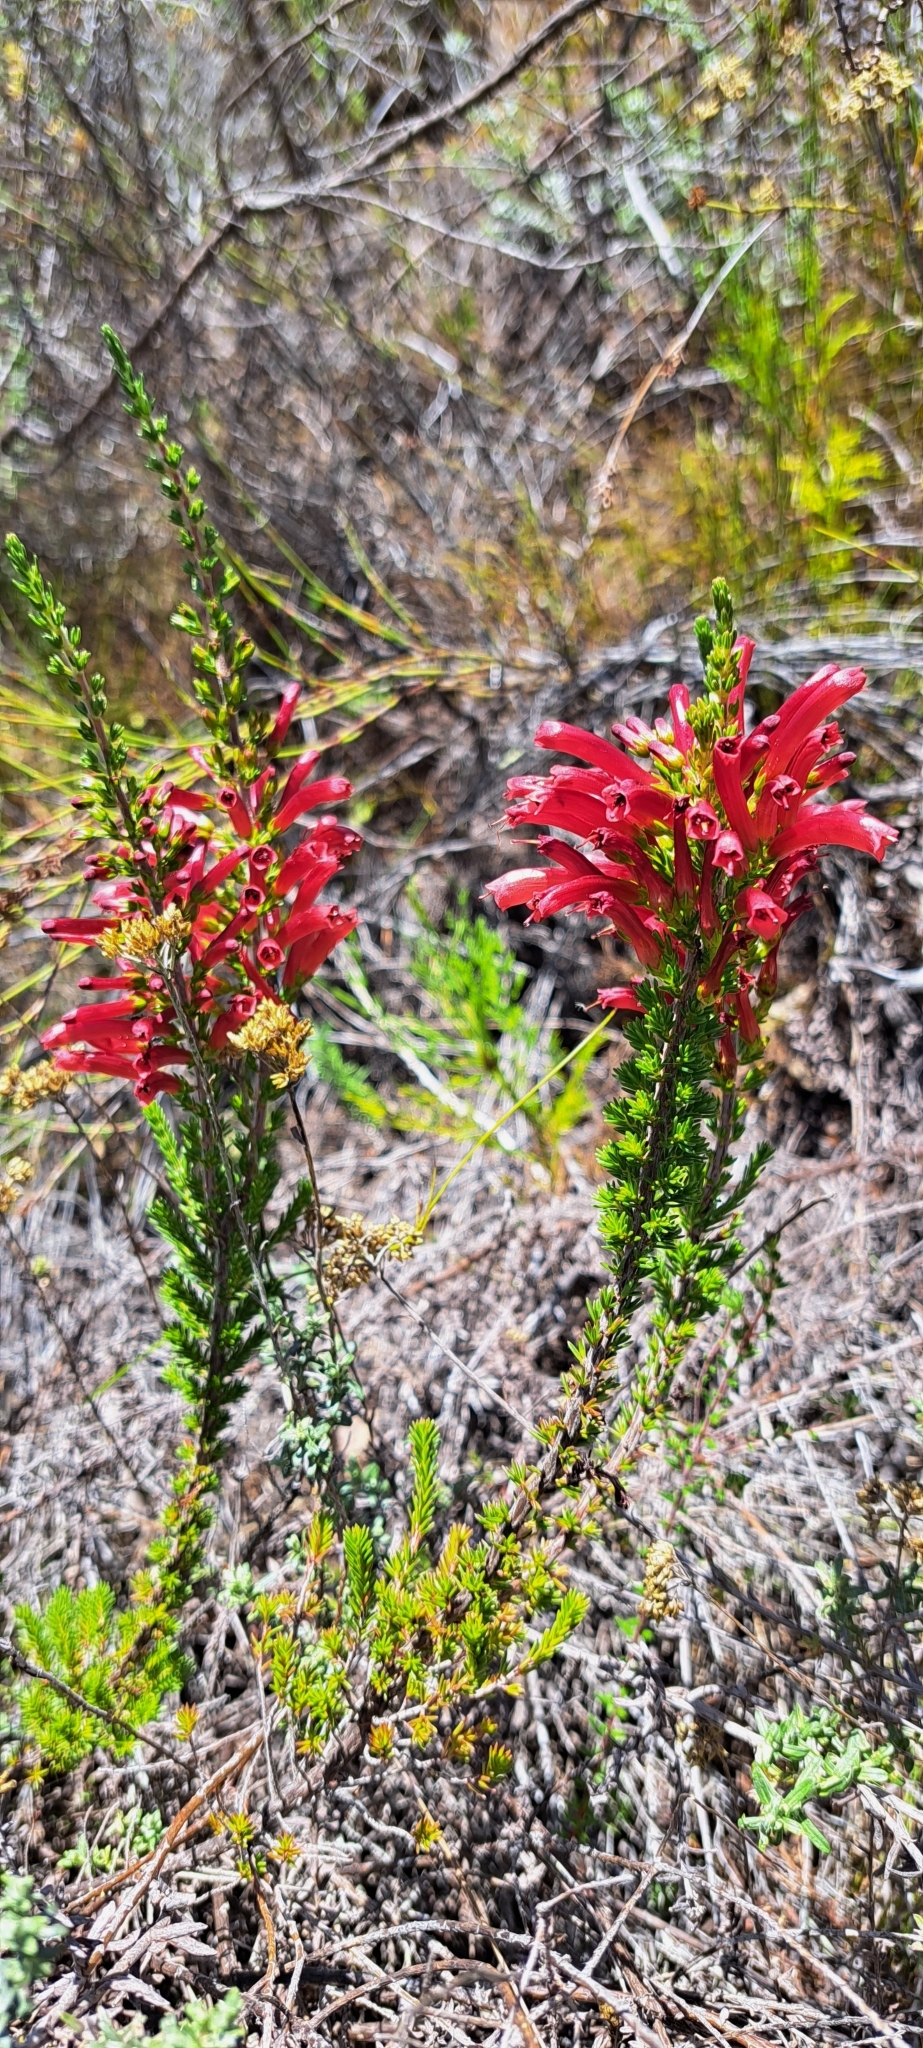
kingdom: Plantae
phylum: Tracheophyta
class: Magnoliopsida
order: Ericales
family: Ericaceae
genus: Erica
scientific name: Erica cruenta
